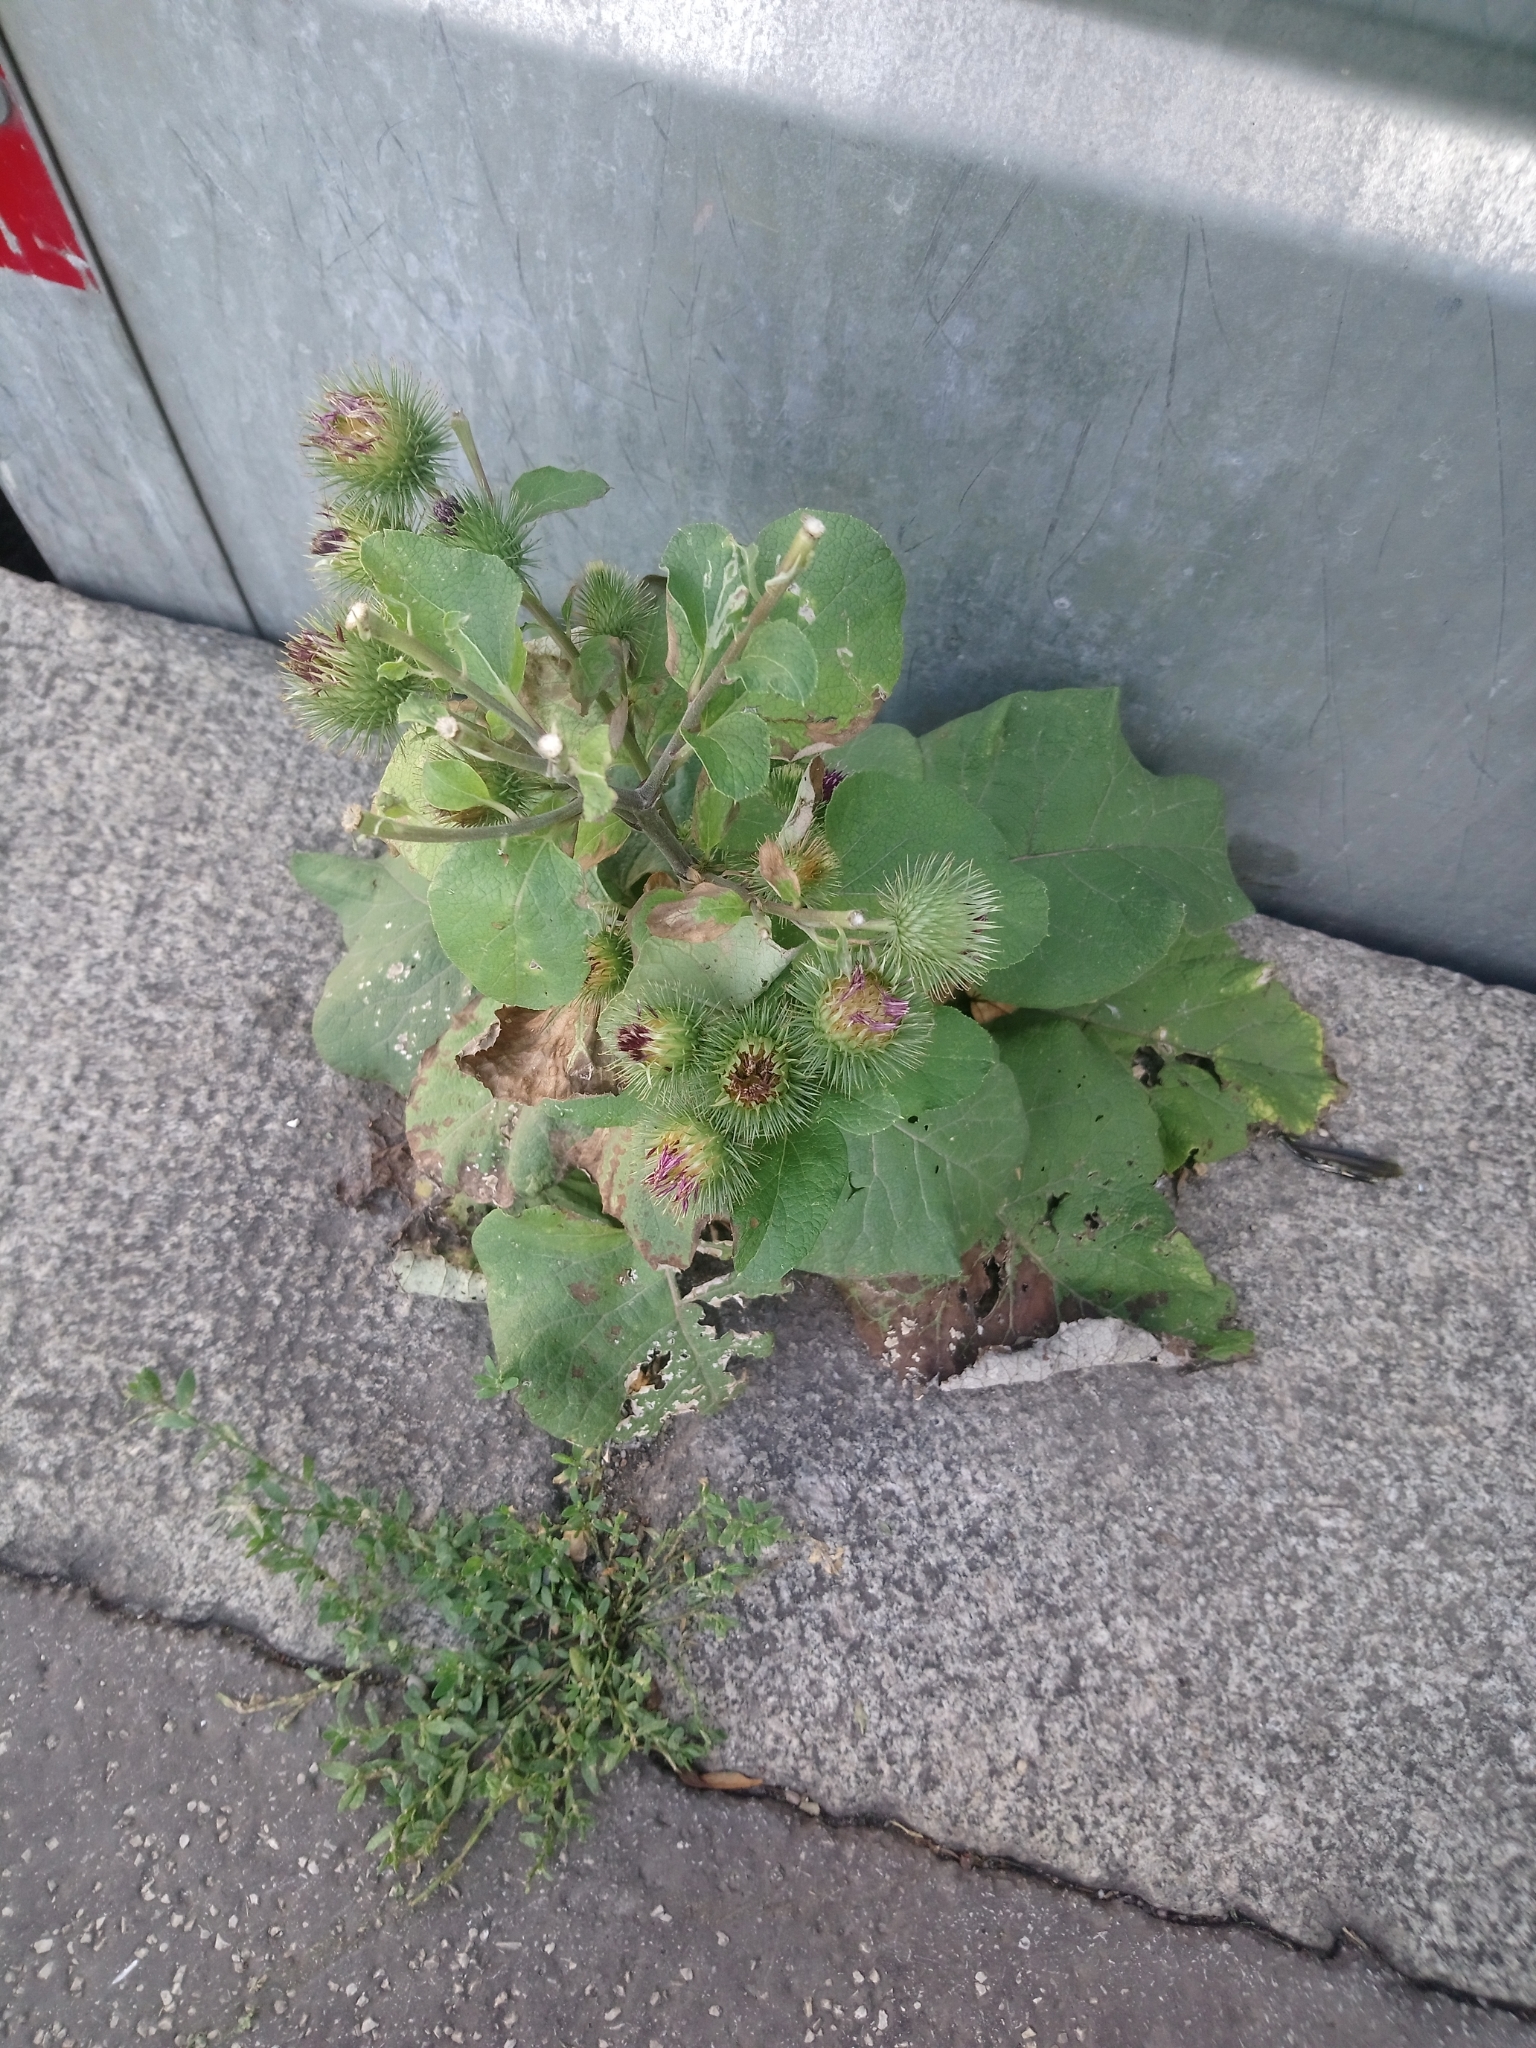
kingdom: Plantae
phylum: Tracheophyta
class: Magnoliopsida
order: Asterales
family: Asteraceae
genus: Arctium
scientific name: Arctium lappa
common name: Greater burdock
